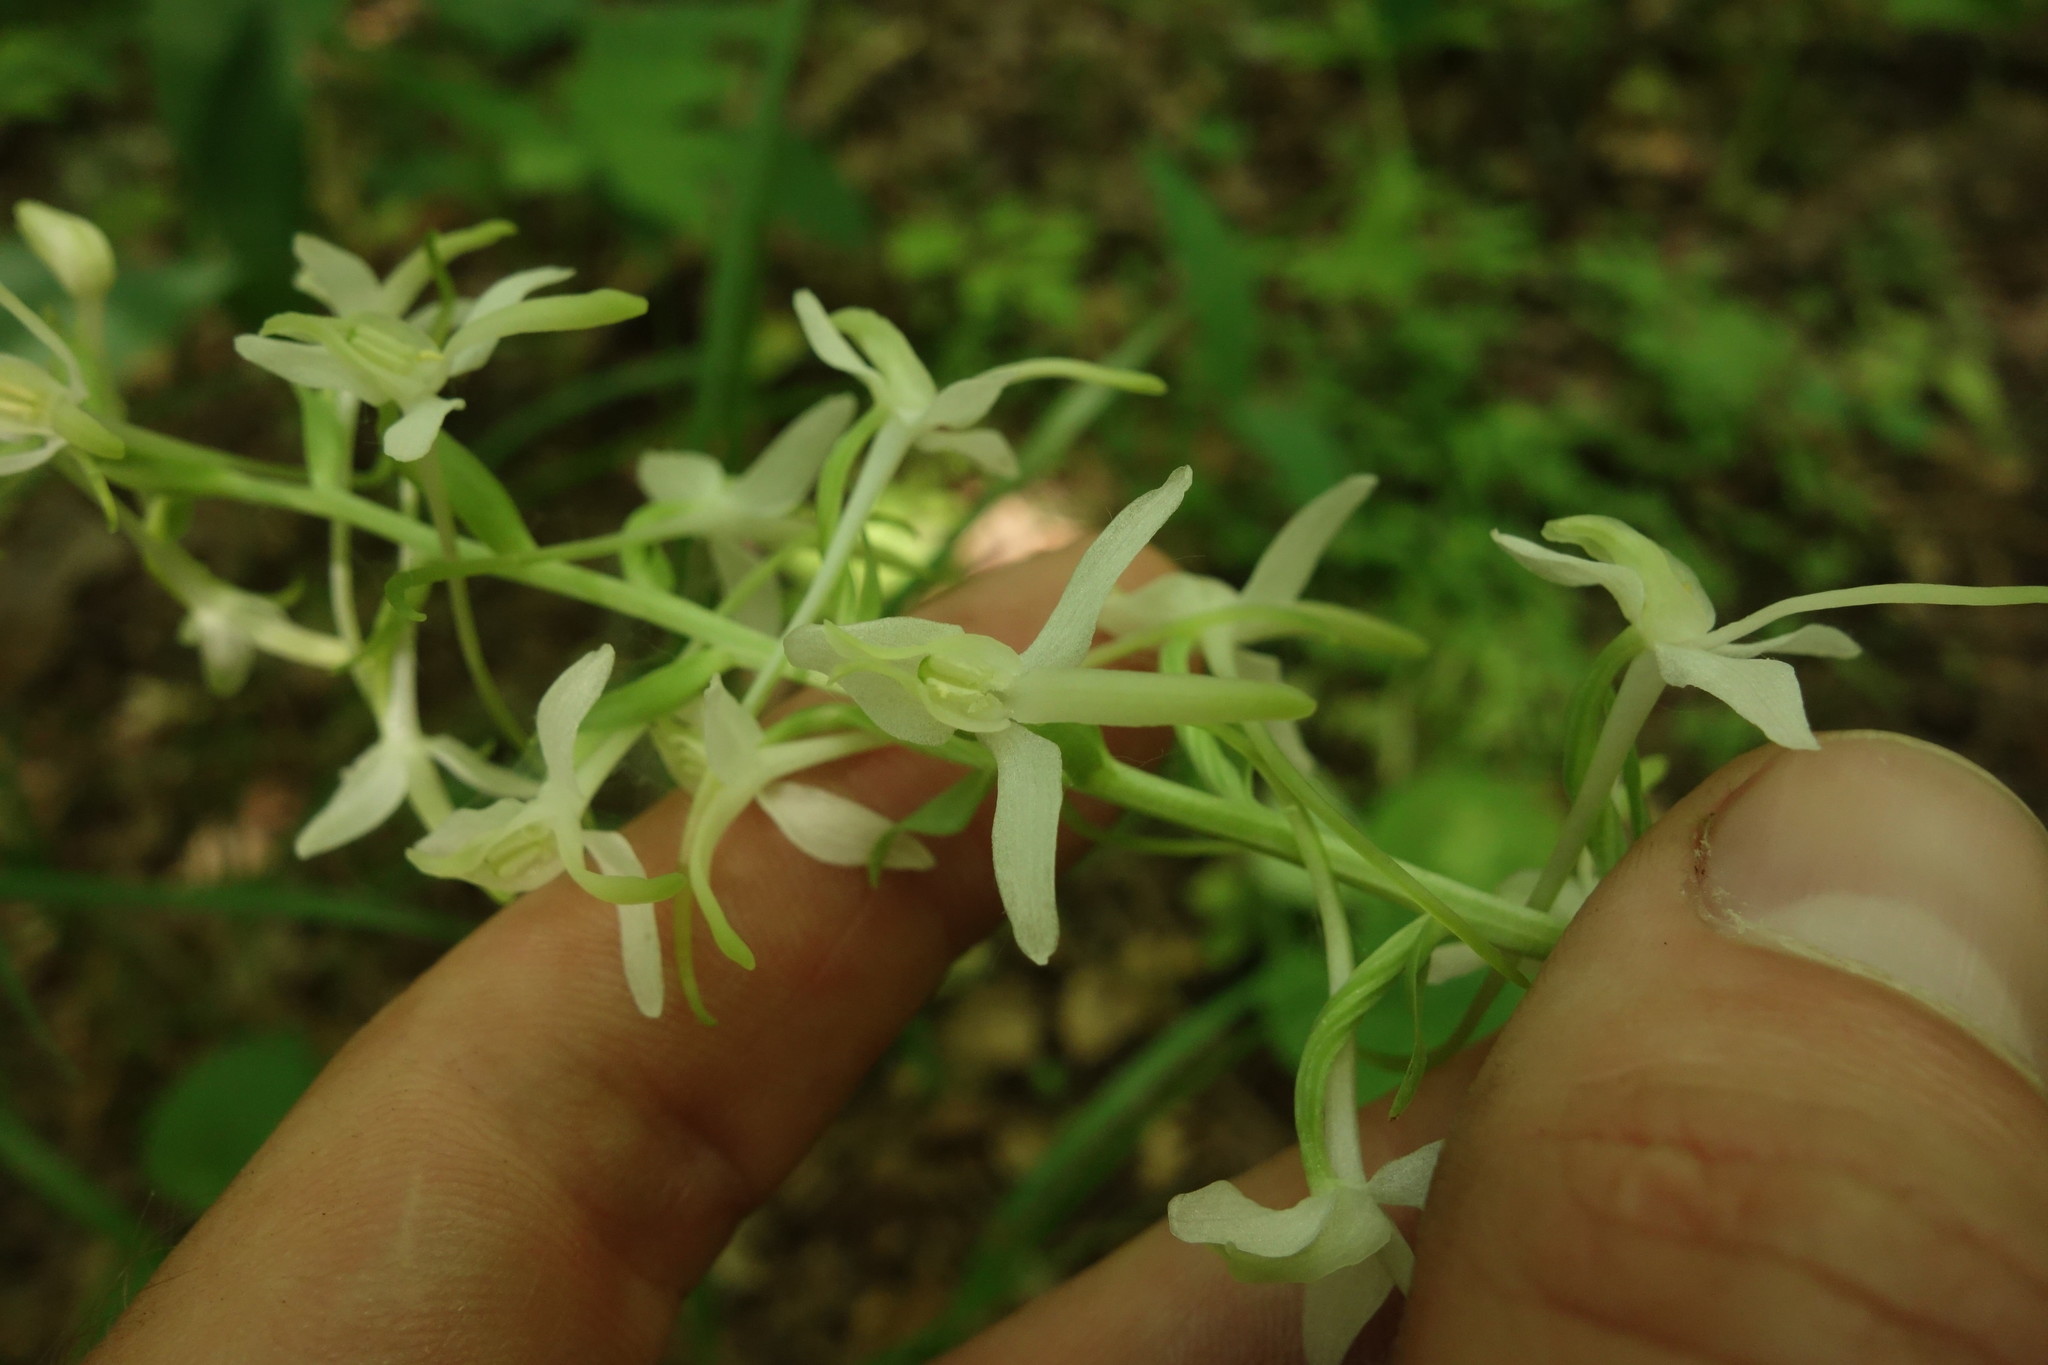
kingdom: Plantae
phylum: Tracheophyta
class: Liliopsida
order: Asparagales
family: Orchidaceae
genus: Platanthera
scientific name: Platanthera bifolia
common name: Lesser butterfly-orchid
